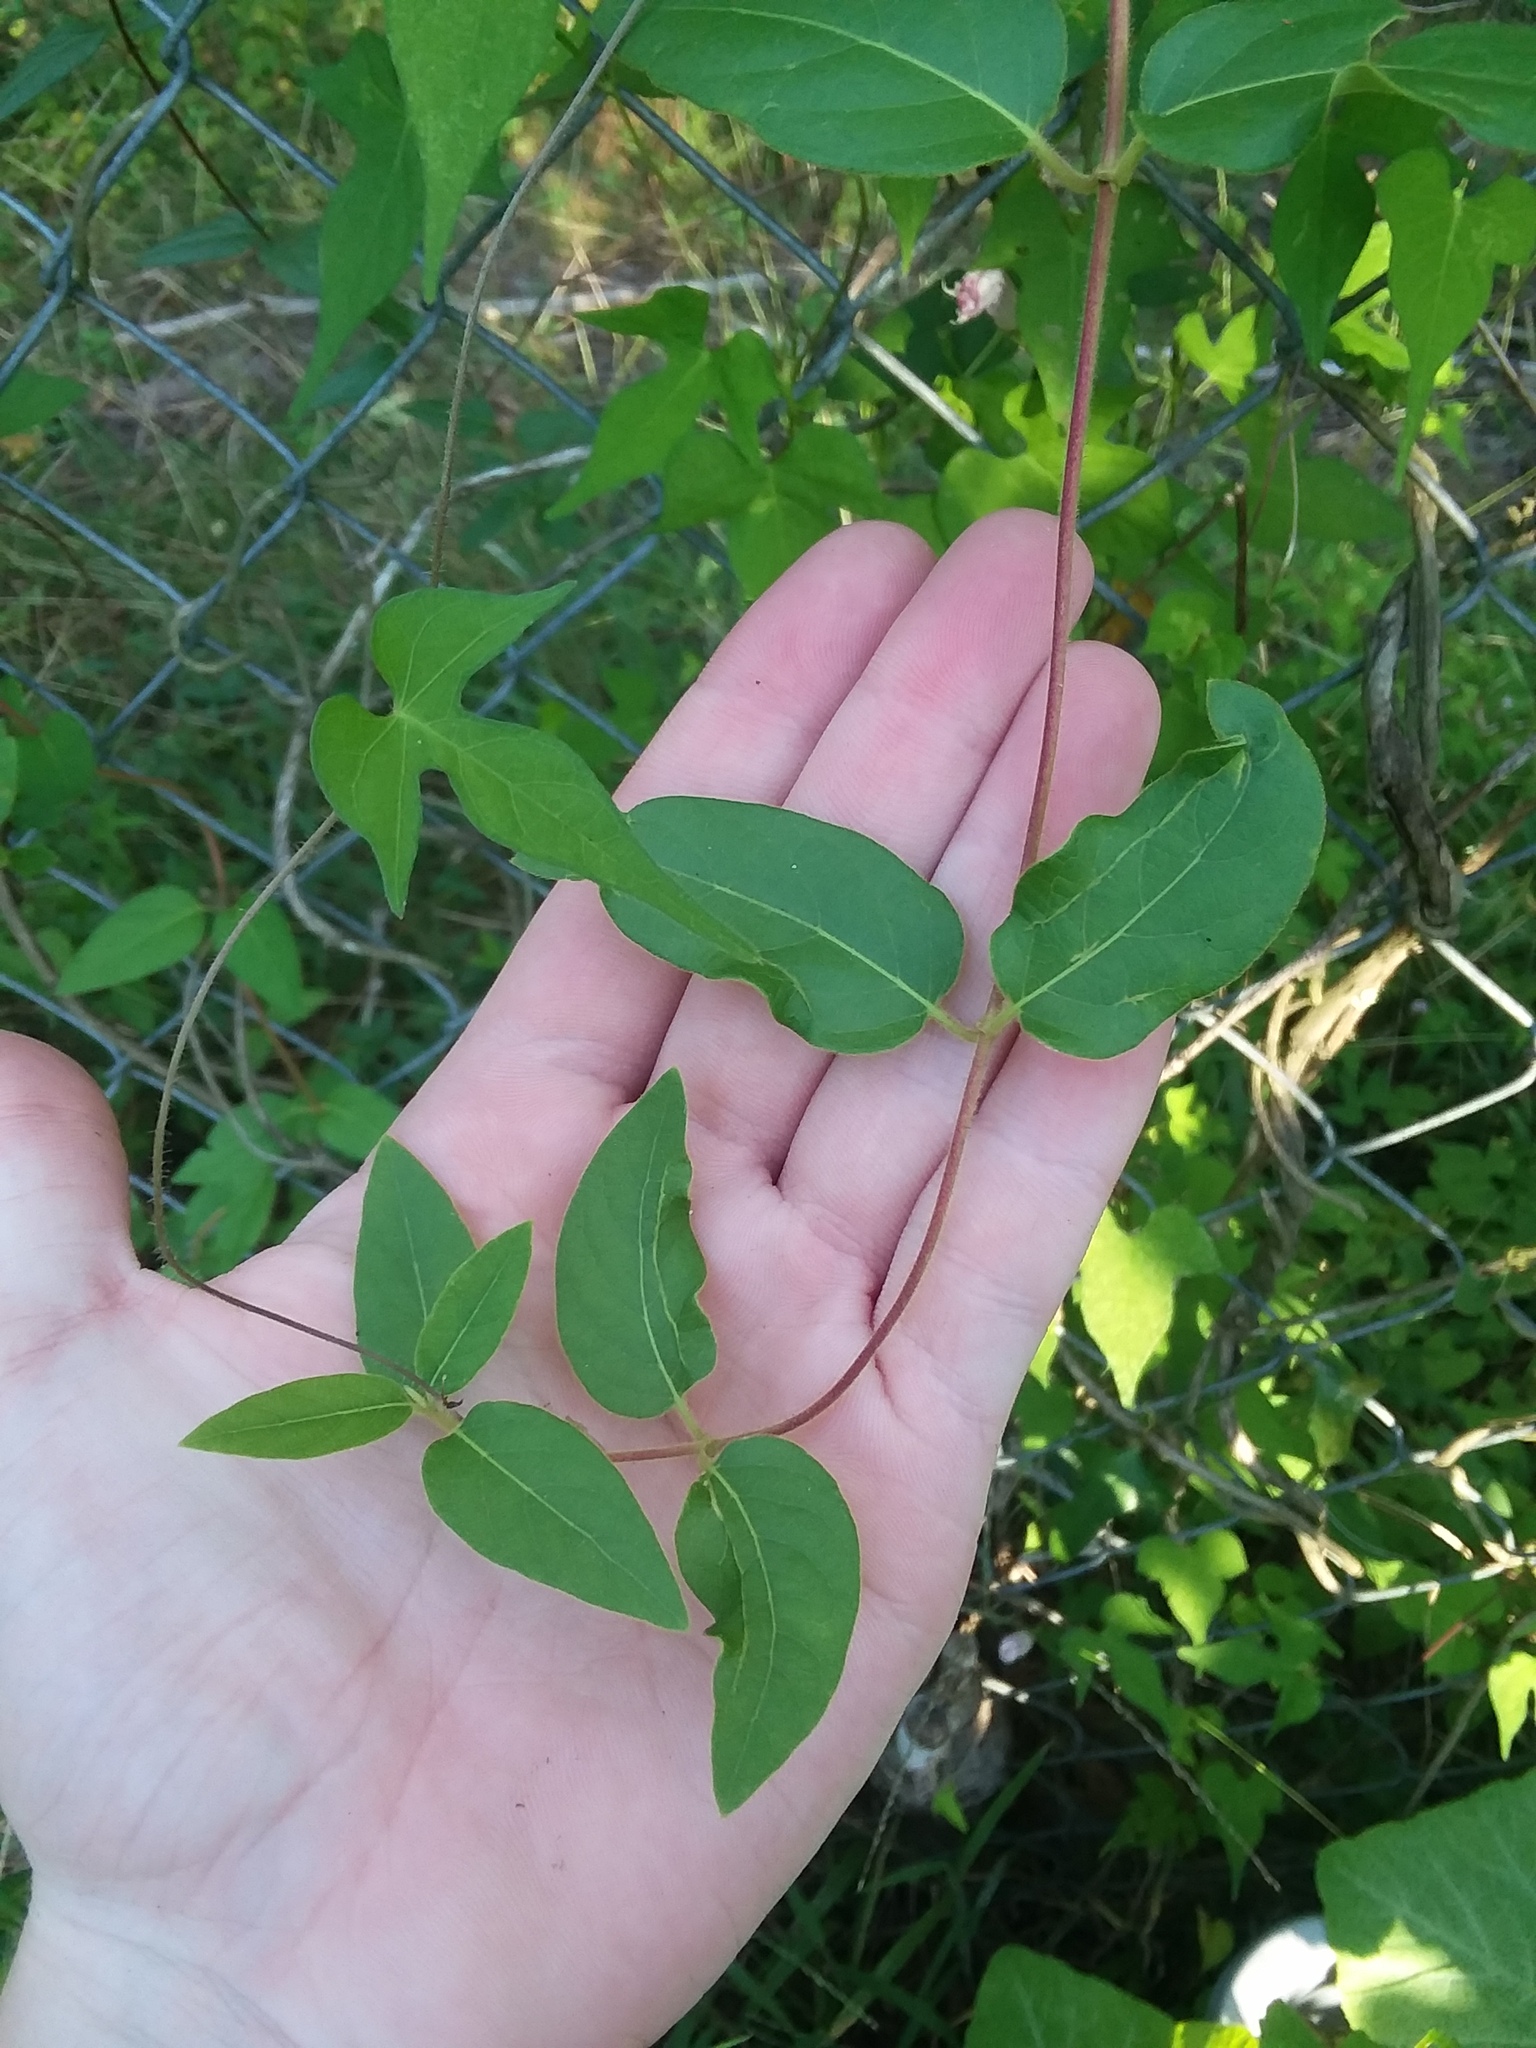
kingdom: Plantae
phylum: Tracheophyta
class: Magnoliopsida
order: Dipsacales
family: Caprifoliaceae
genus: Lonicera
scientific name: Lonicera japonica
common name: Japanese honeysuckle
